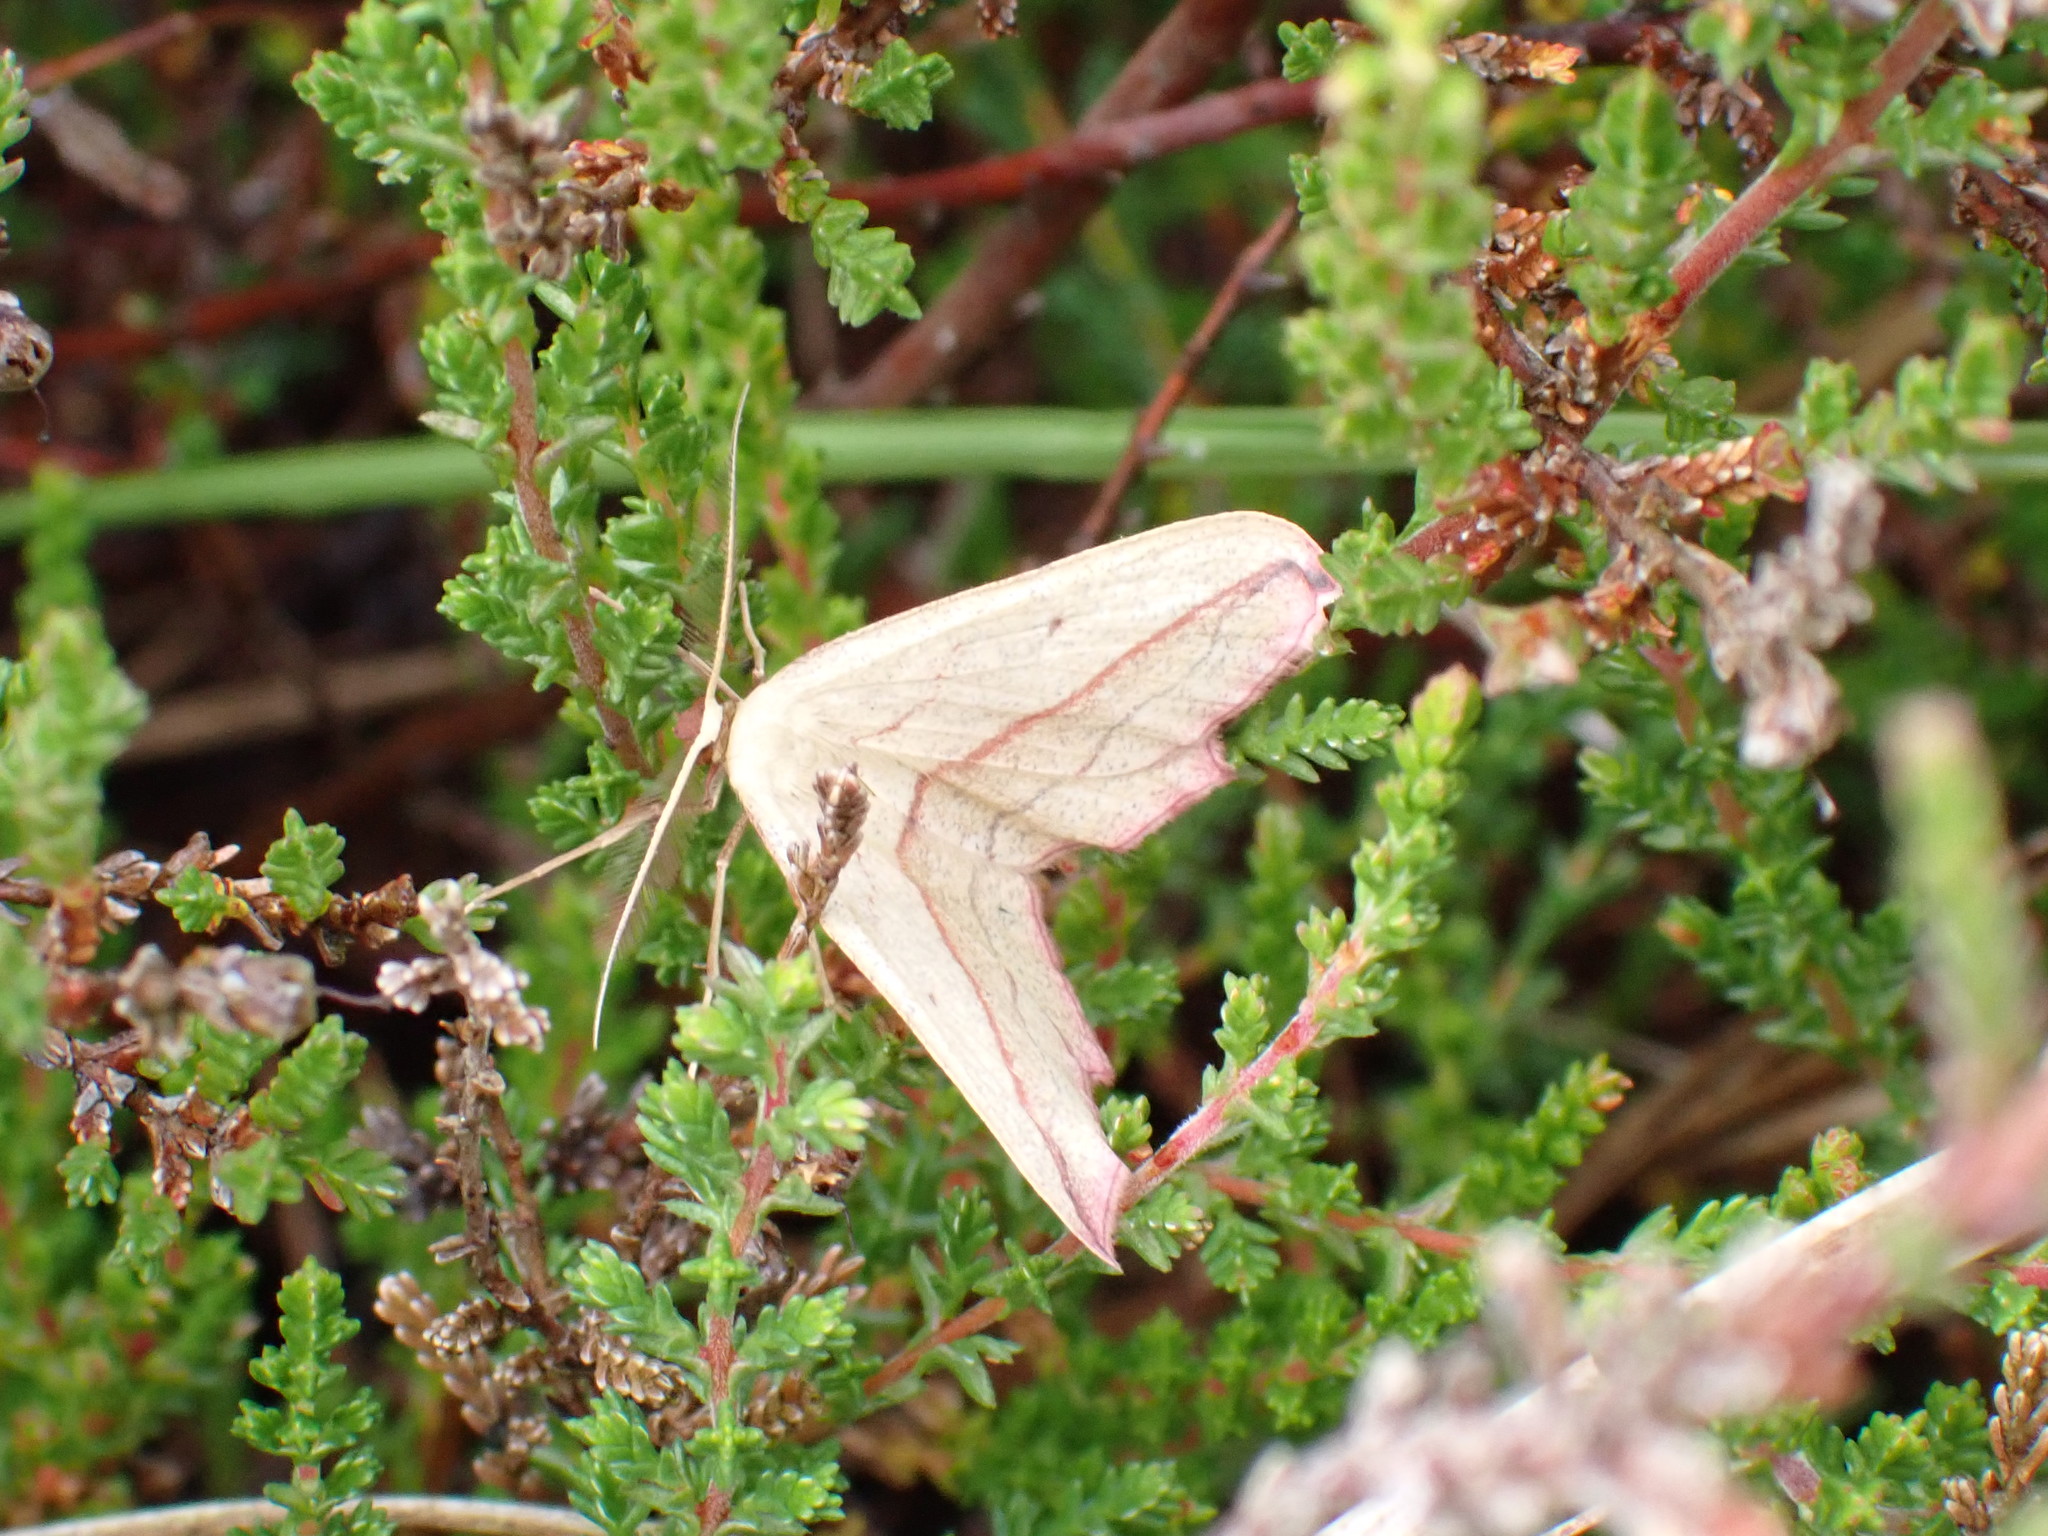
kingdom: Animalia
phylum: Arthropoda
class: Insecta
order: Lepidoptera
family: Geometridae
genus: Timandra
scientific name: Timandra comae
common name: Blood-vein
